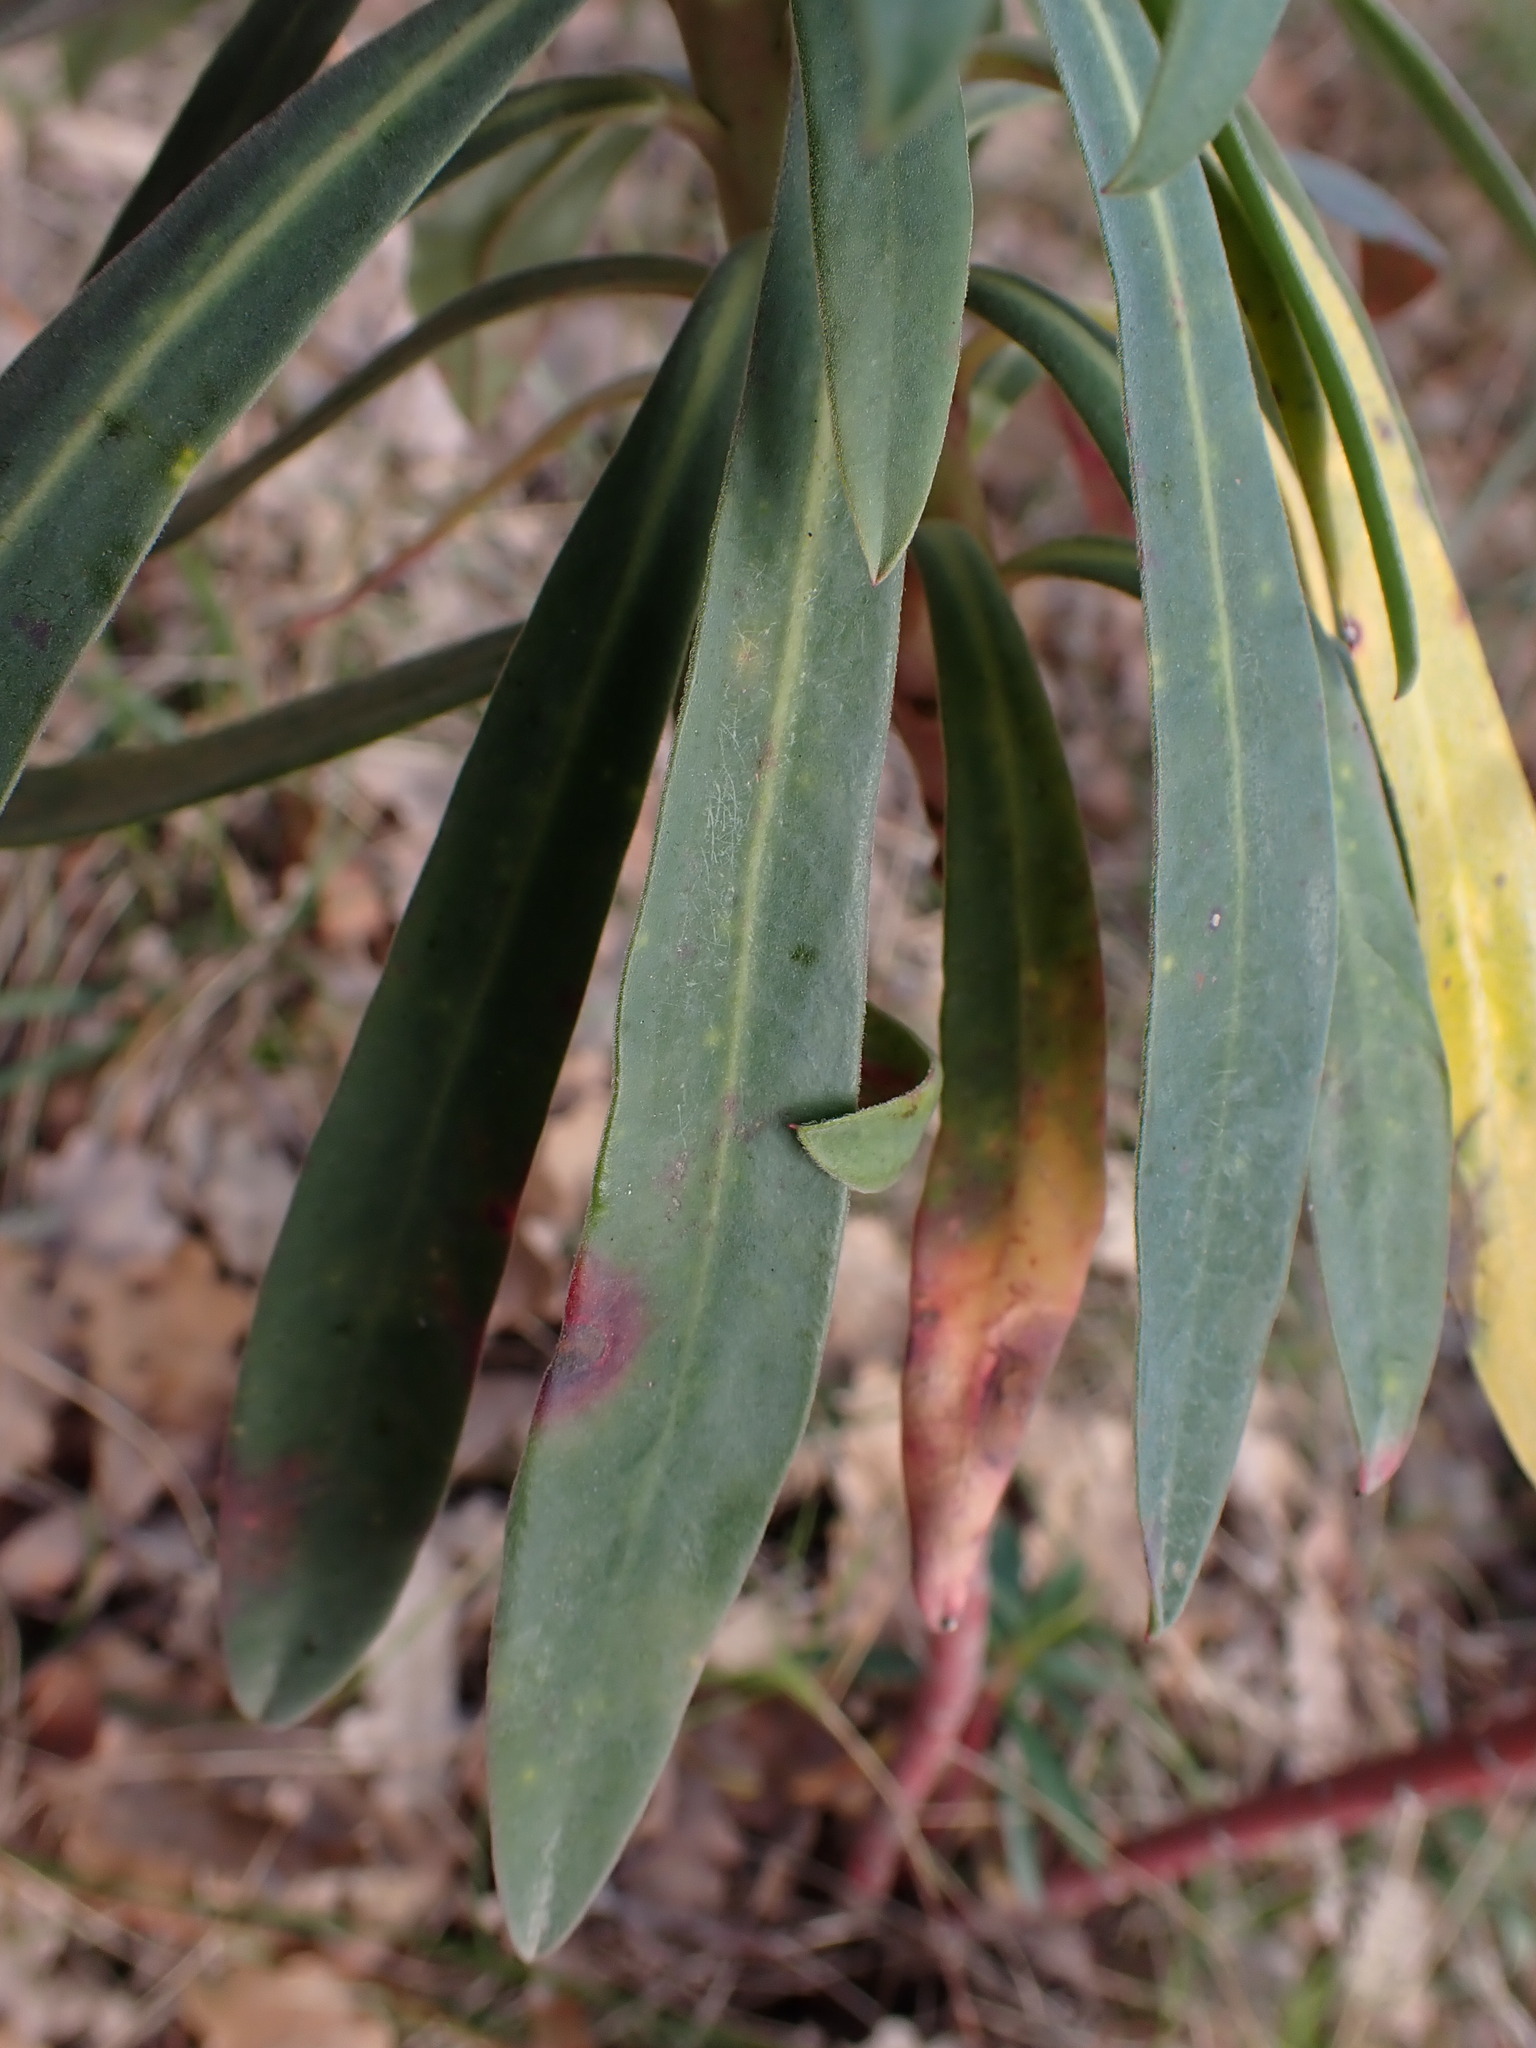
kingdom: Plantae
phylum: Tracheophyta
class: Magnoliopsida
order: Malpighiales
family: Euphorbiaceae
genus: Euphorbia
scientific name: Euphorbia characias
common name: Mediterranean spurge
